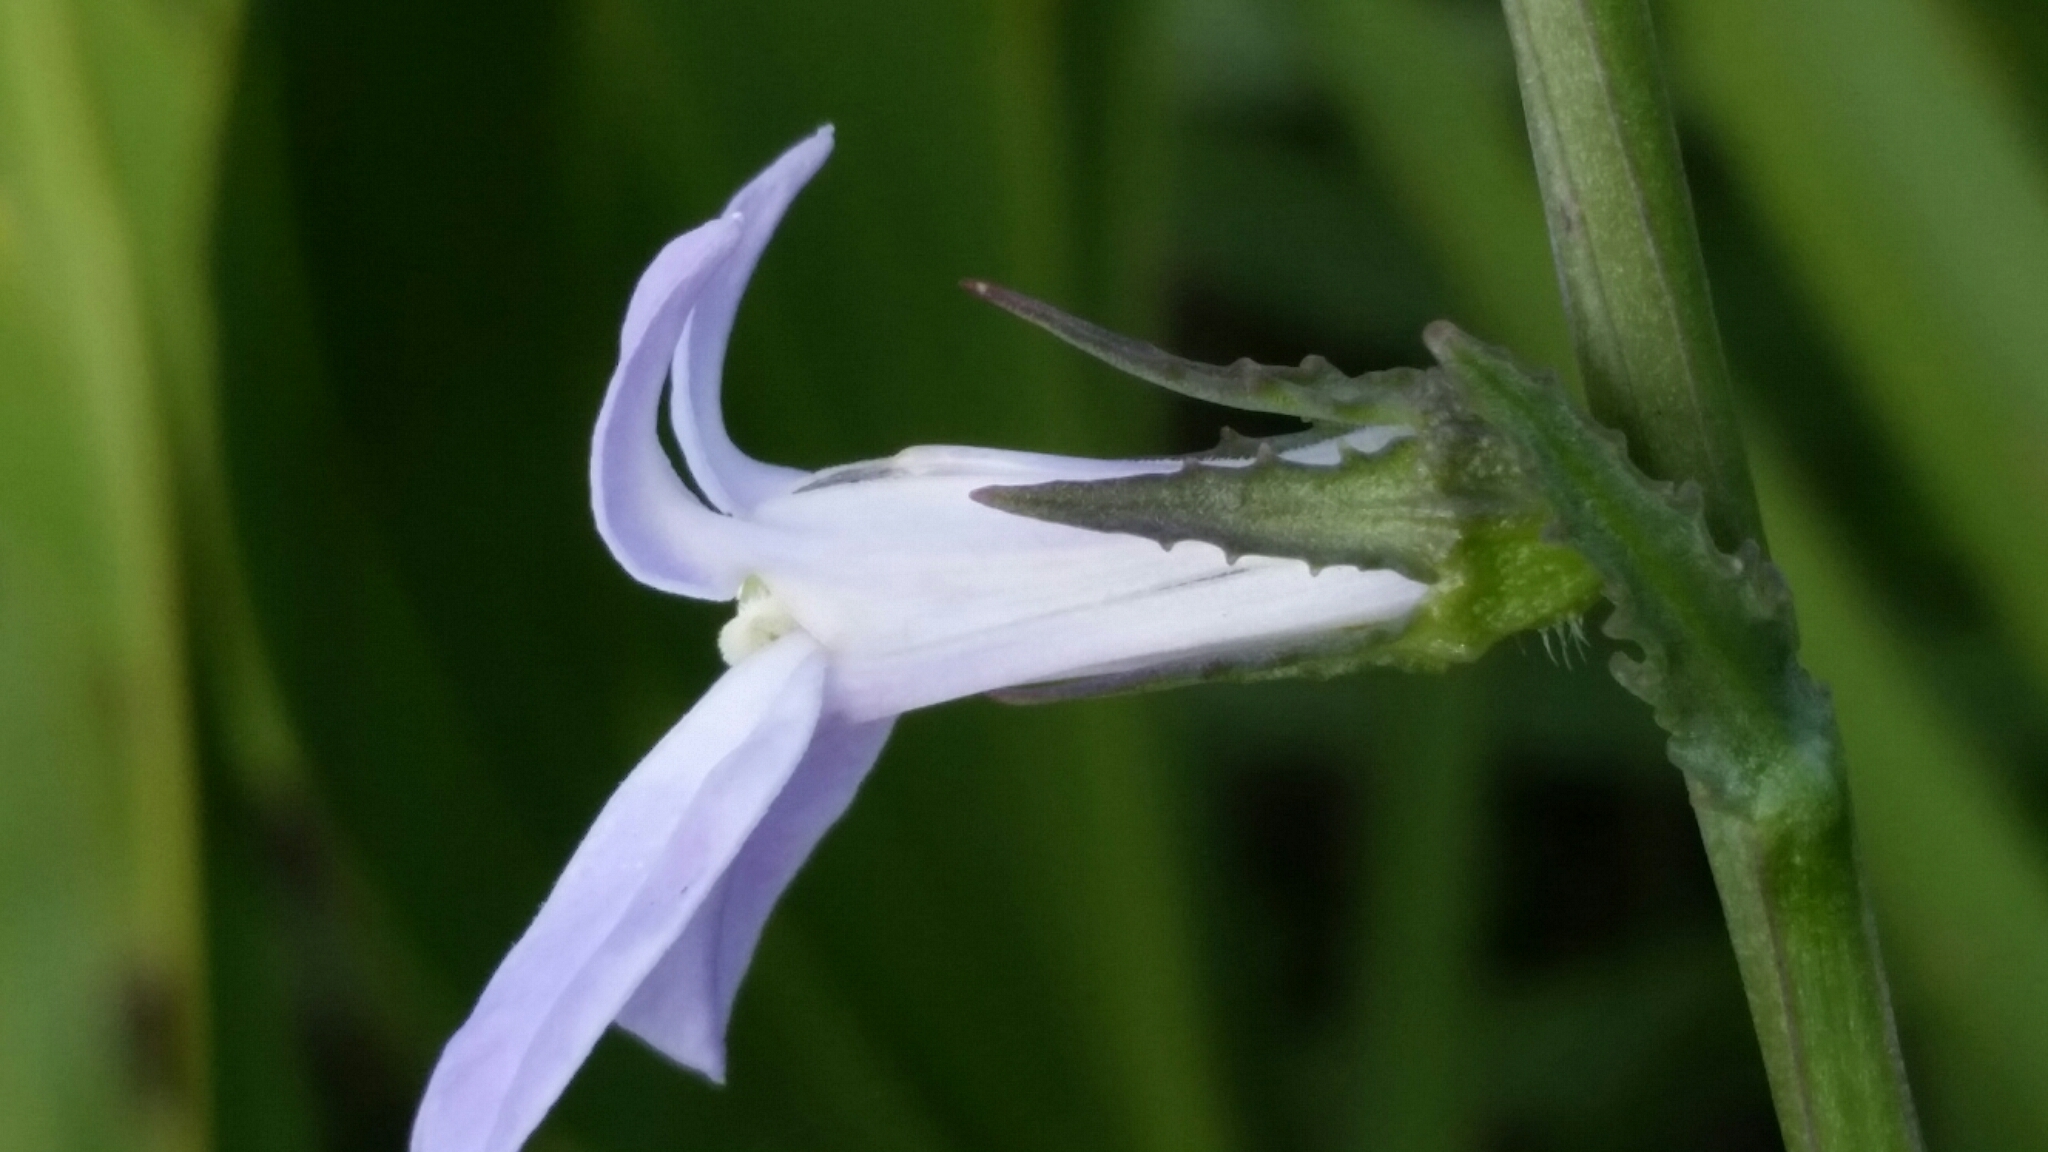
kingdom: Plantae
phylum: Tracheophyta
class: Magnoliopsida
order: Asterales
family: Campanulaceae
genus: Lobelia
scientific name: Lobelia glandulosa
